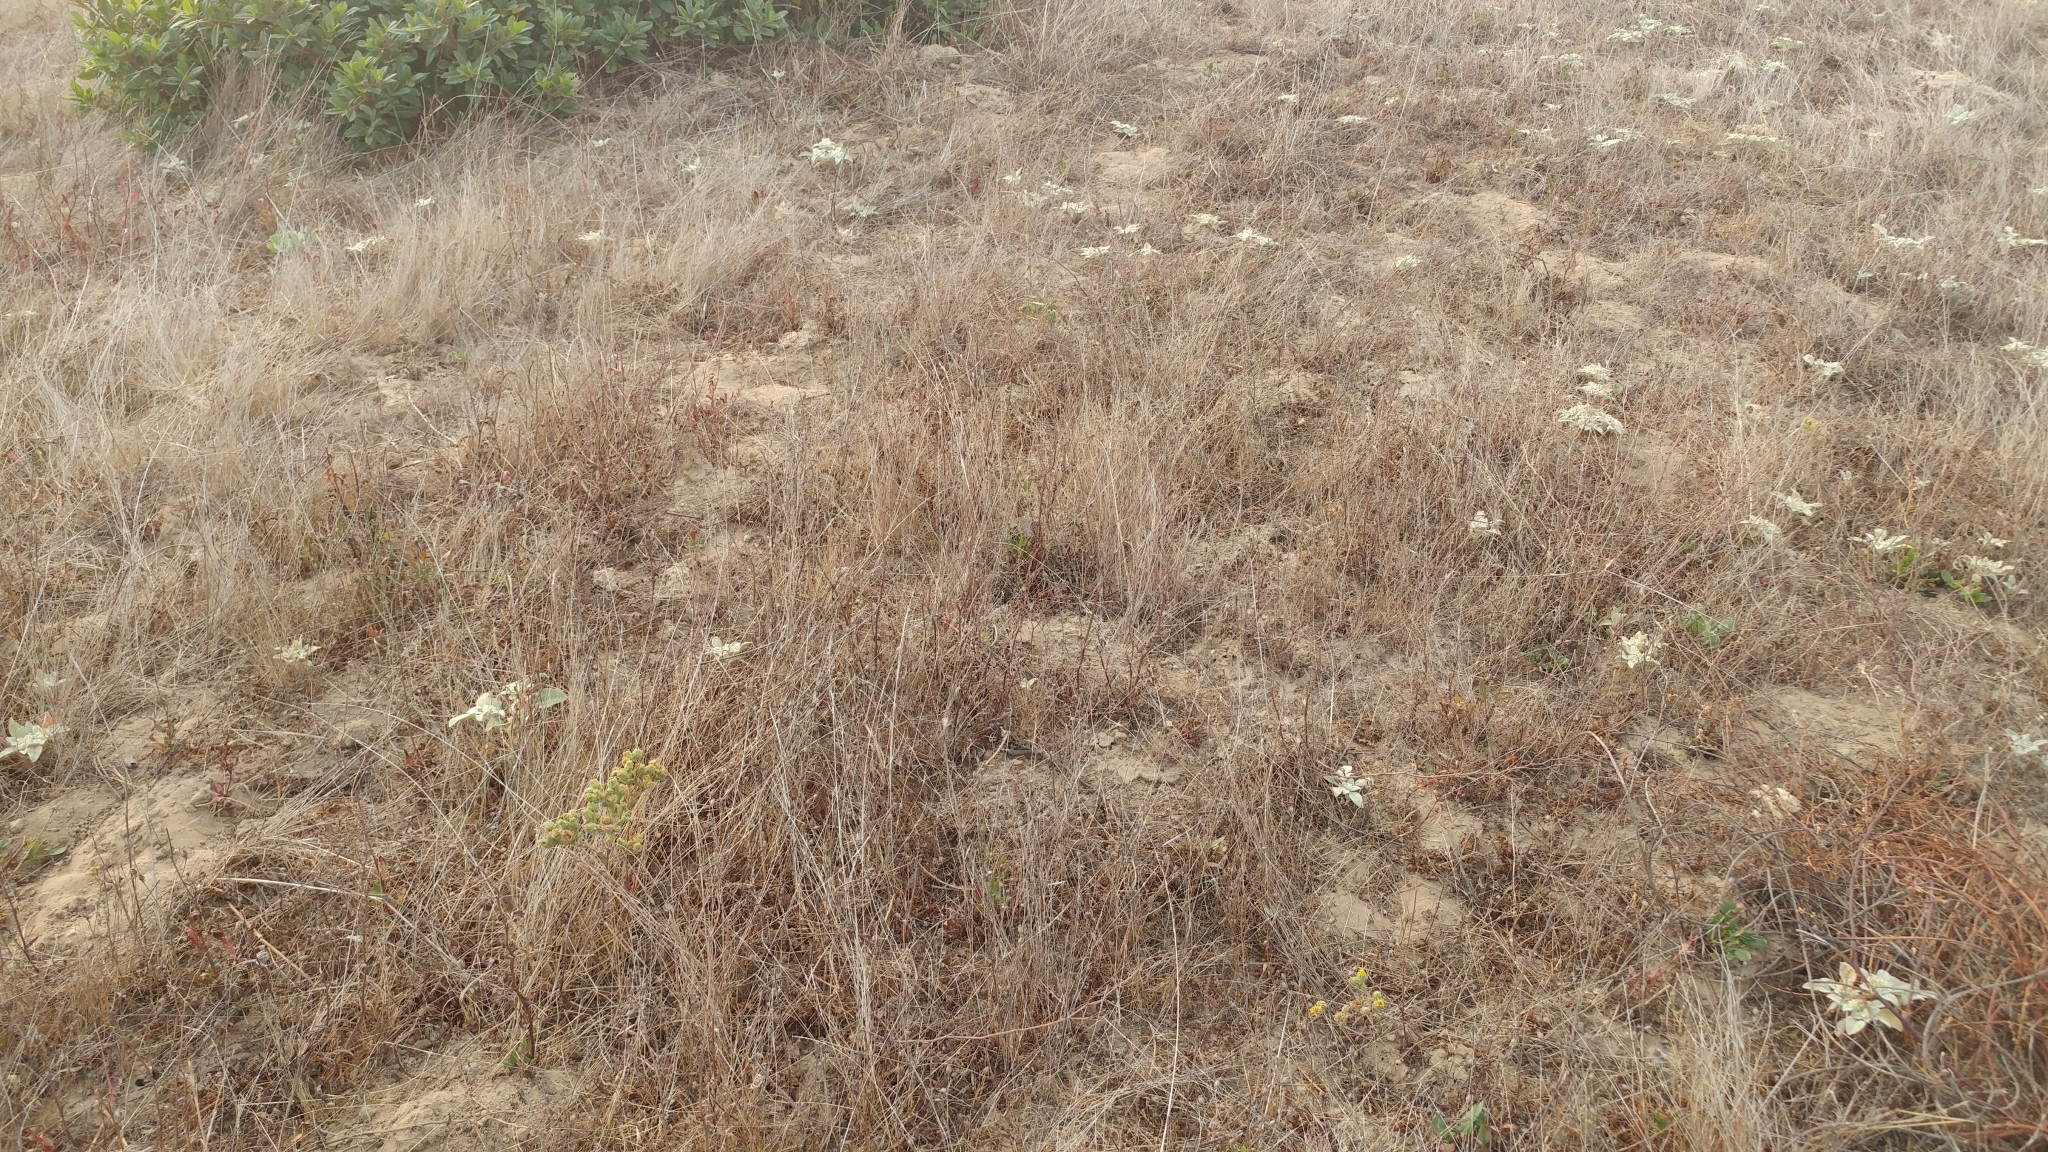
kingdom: Plantae
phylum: Tracheophyta
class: Magnoliopsida
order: Asterales
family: Asteraceae
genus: Deinandra
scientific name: Deinandra increscens
